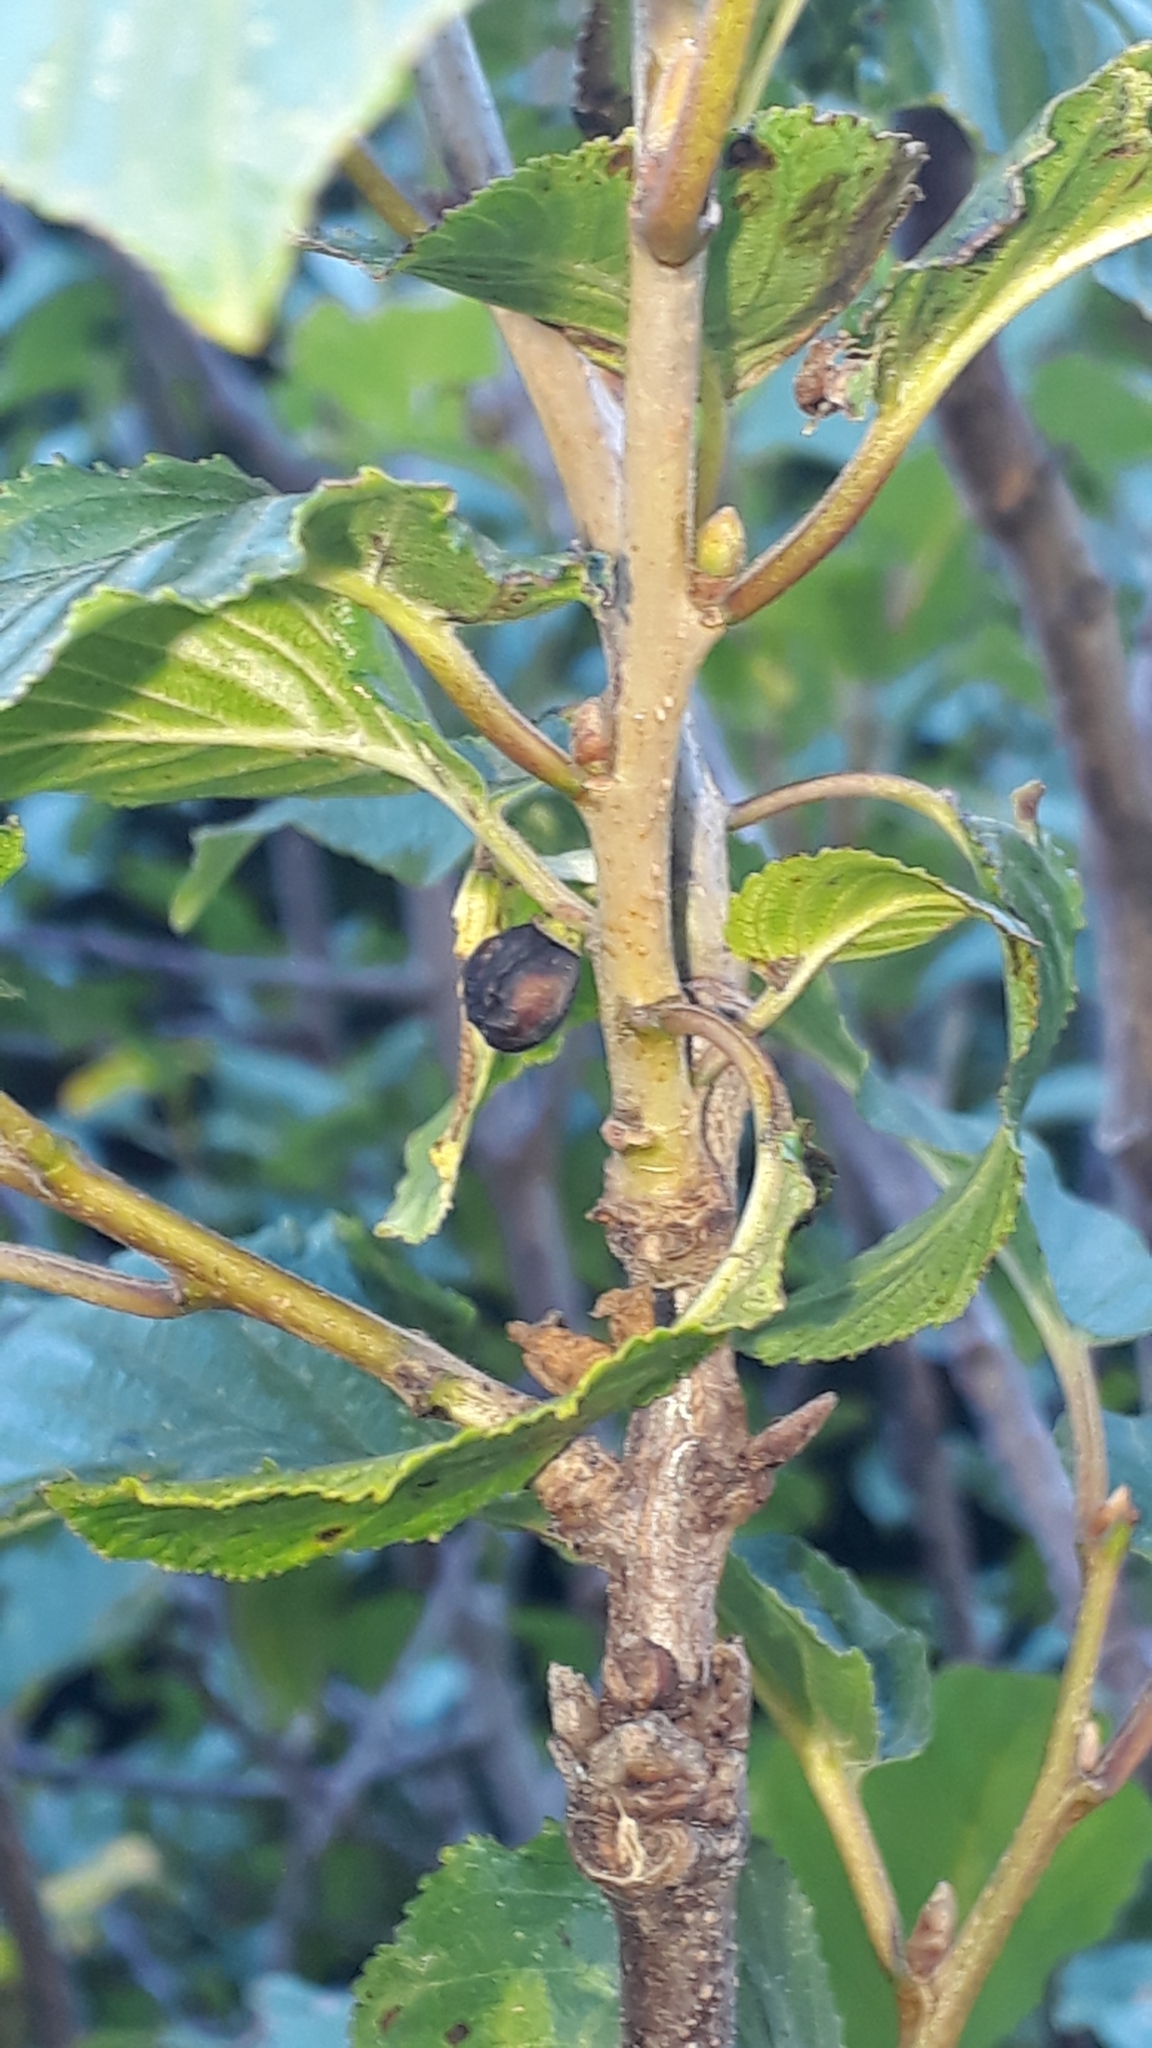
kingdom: Plantae
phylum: Tracheophyta
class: Magnoliopsida
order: Rosales
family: Rhamnaceae
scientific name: Rhamnaceae
